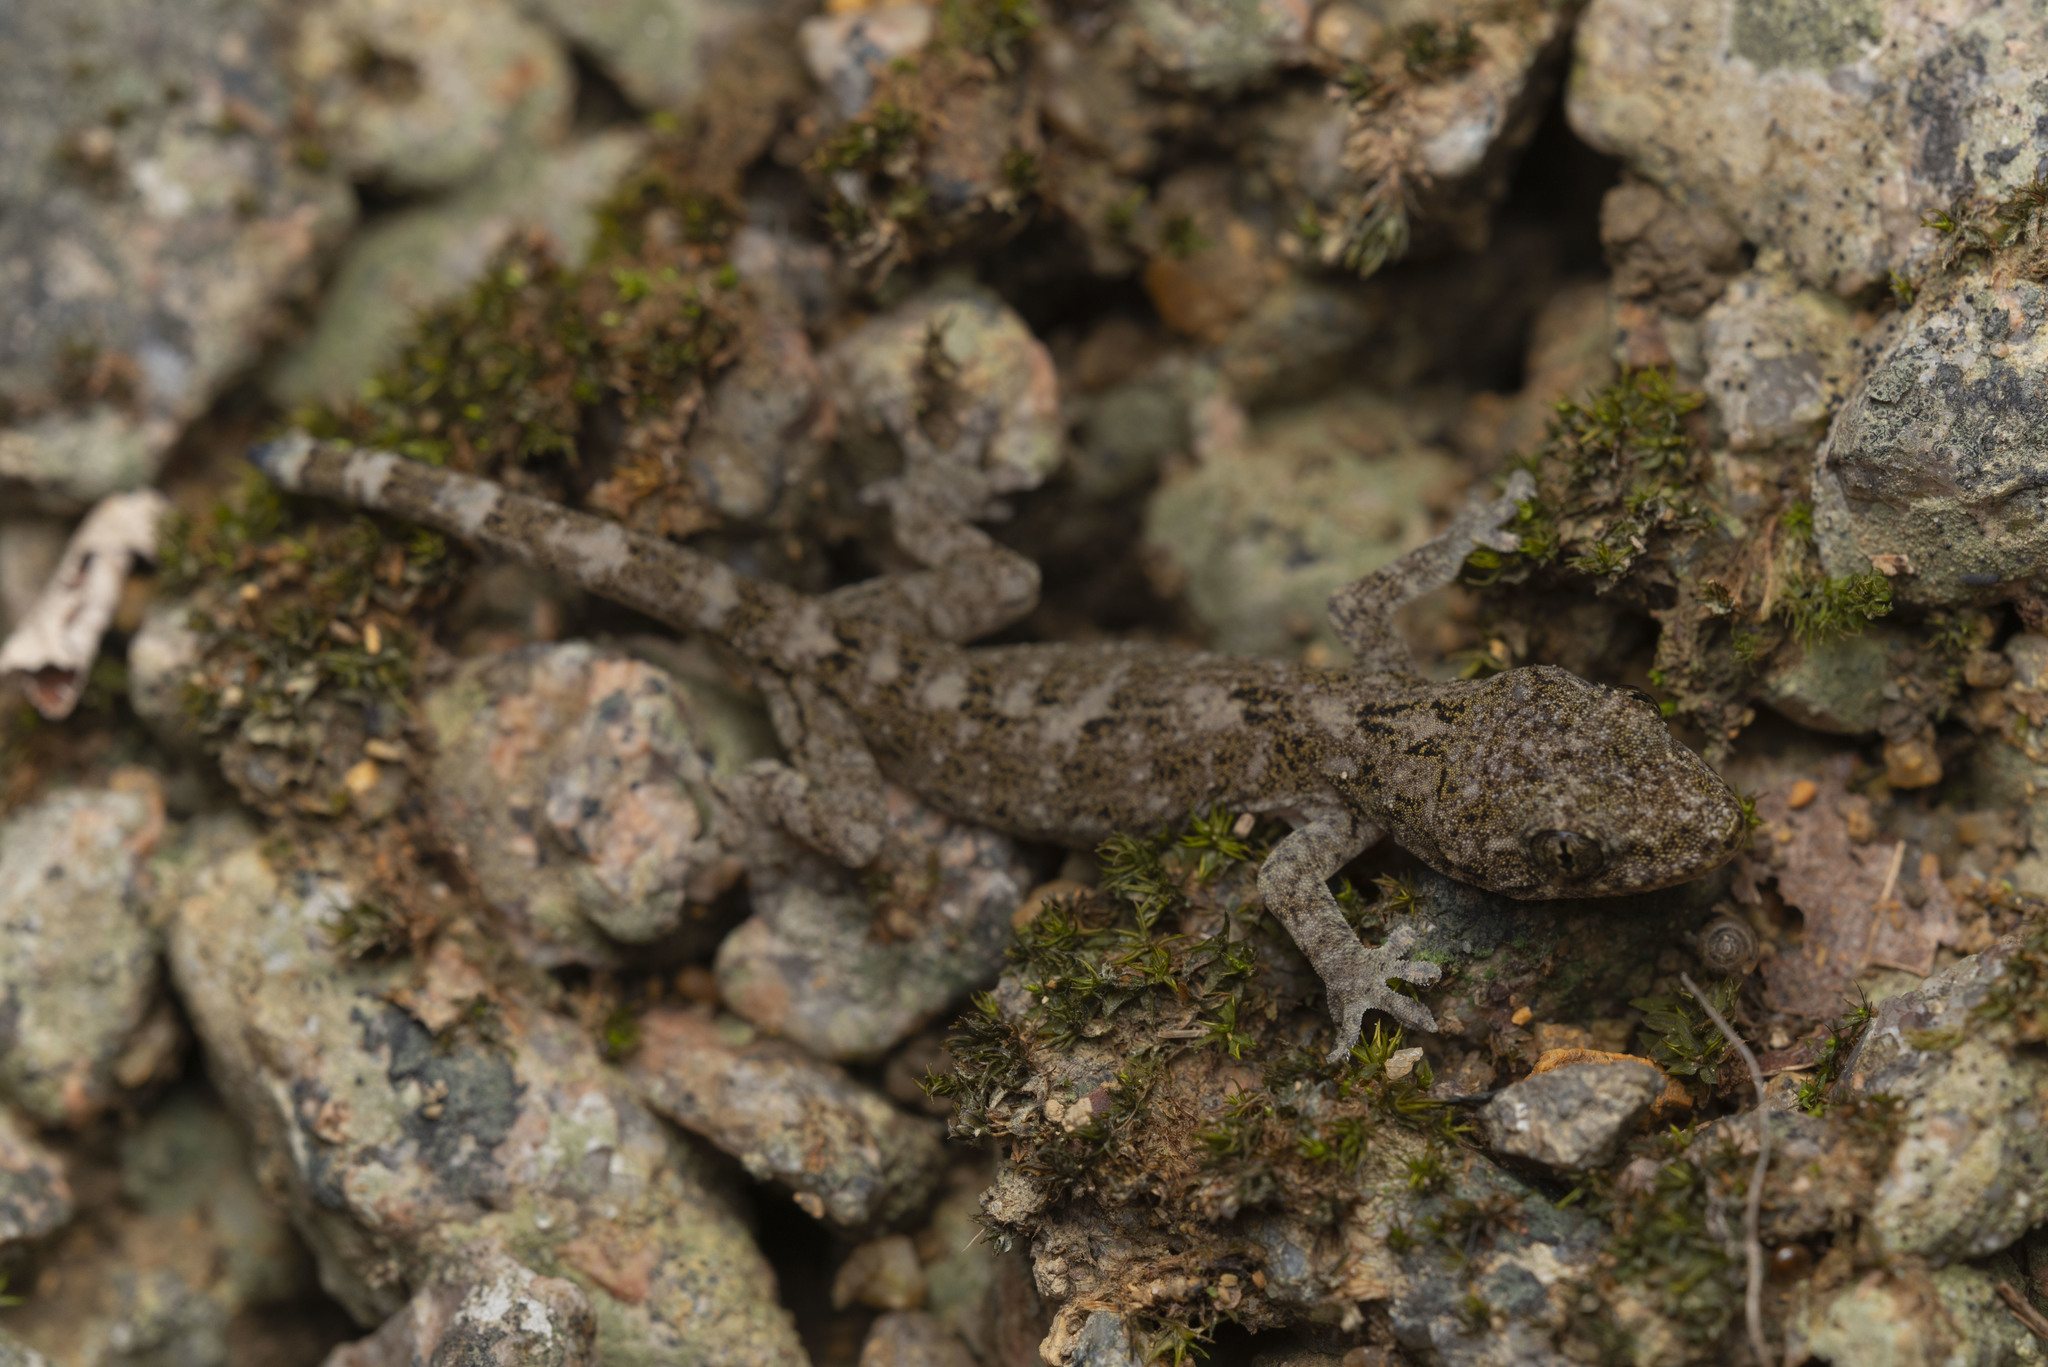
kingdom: Animalia
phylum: Chordata
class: Squamata
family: Gekkonidae
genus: Gekko
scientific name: Gekko chinensis
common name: Gray's chinese gecko
